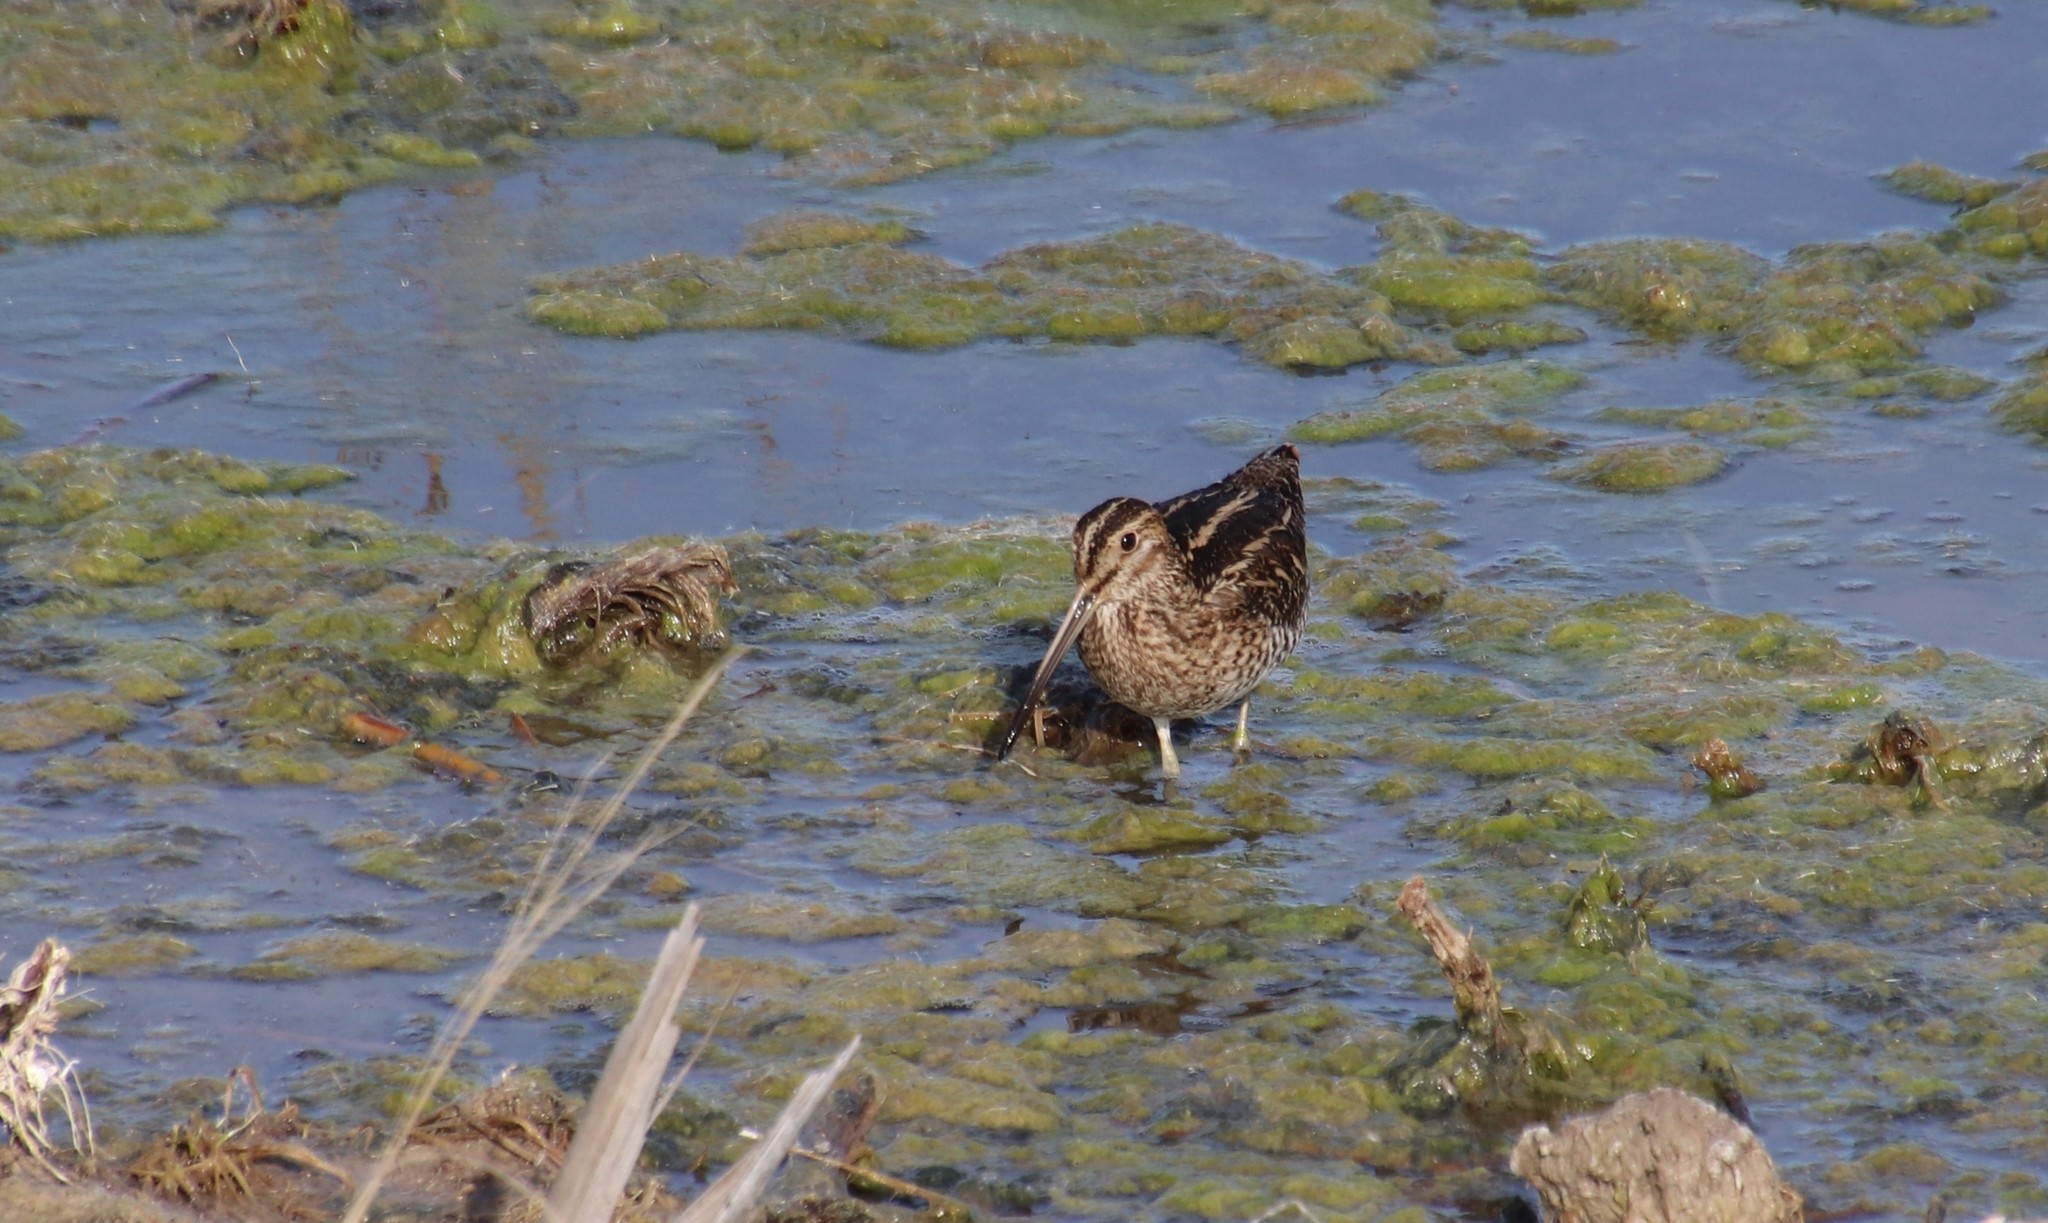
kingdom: Animalia
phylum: Chordata
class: Aves
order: Charadriiformes
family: Scolopacidae
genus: Gallinago
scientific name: Gallinago delicata
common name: Wilson's snipe
